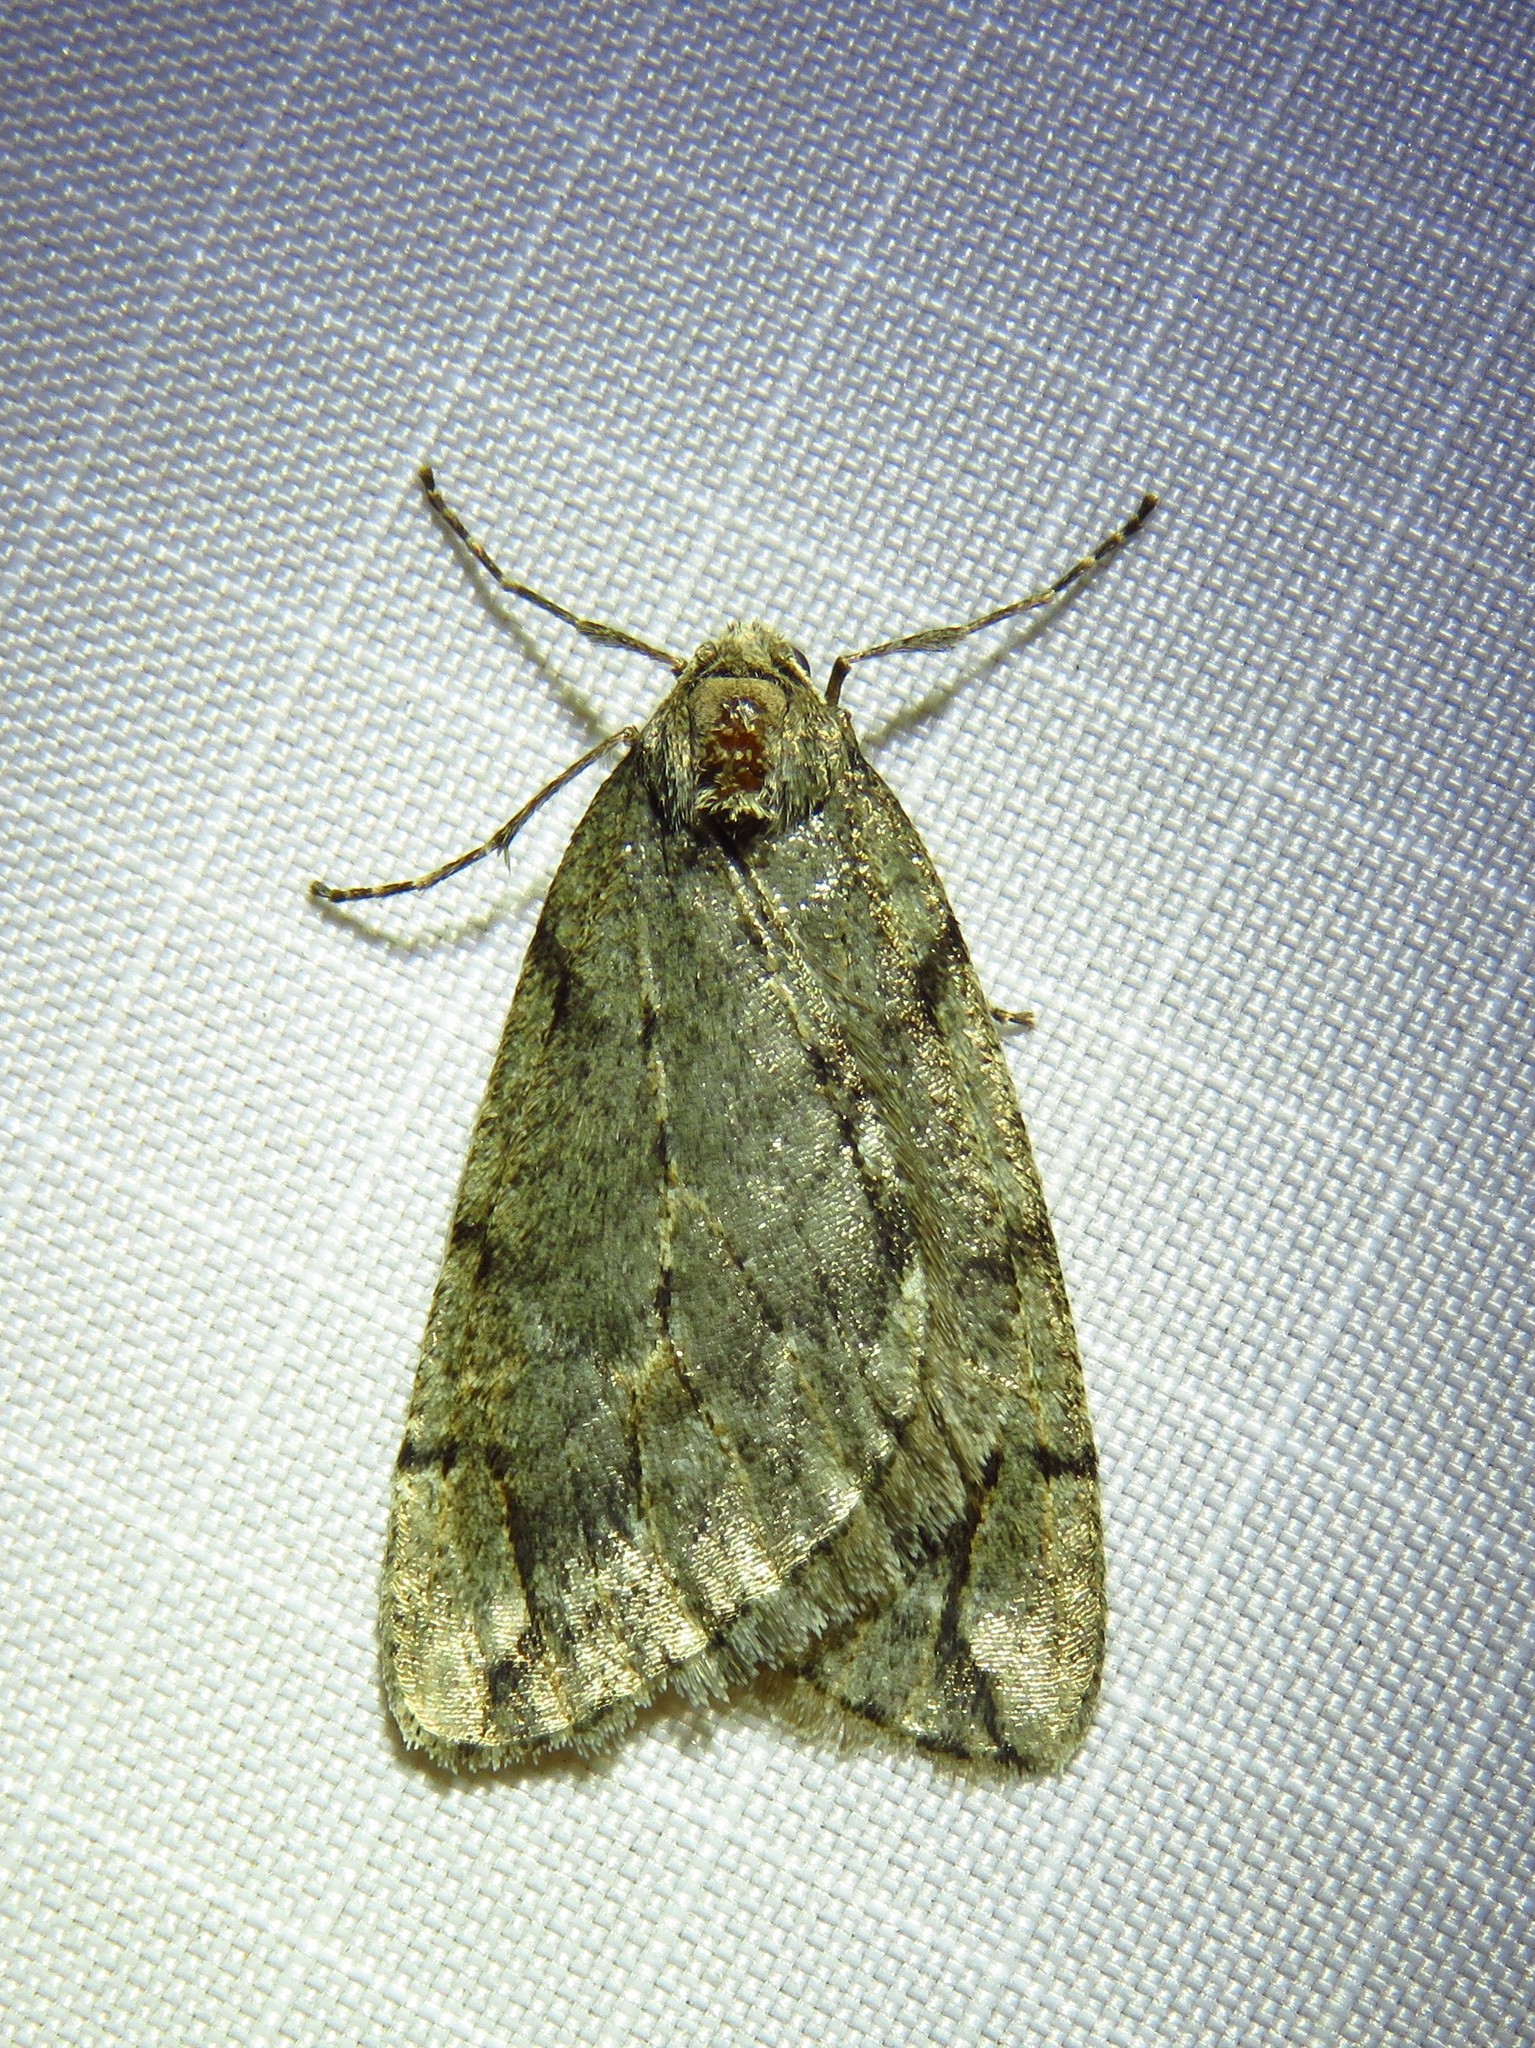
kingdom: Animalia
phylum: Arthropoda
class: Insecta
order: Lepidoptera
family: Geometridae
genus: Paleacrita
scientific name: Paleacrita vernata
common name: Spring cankerworm
